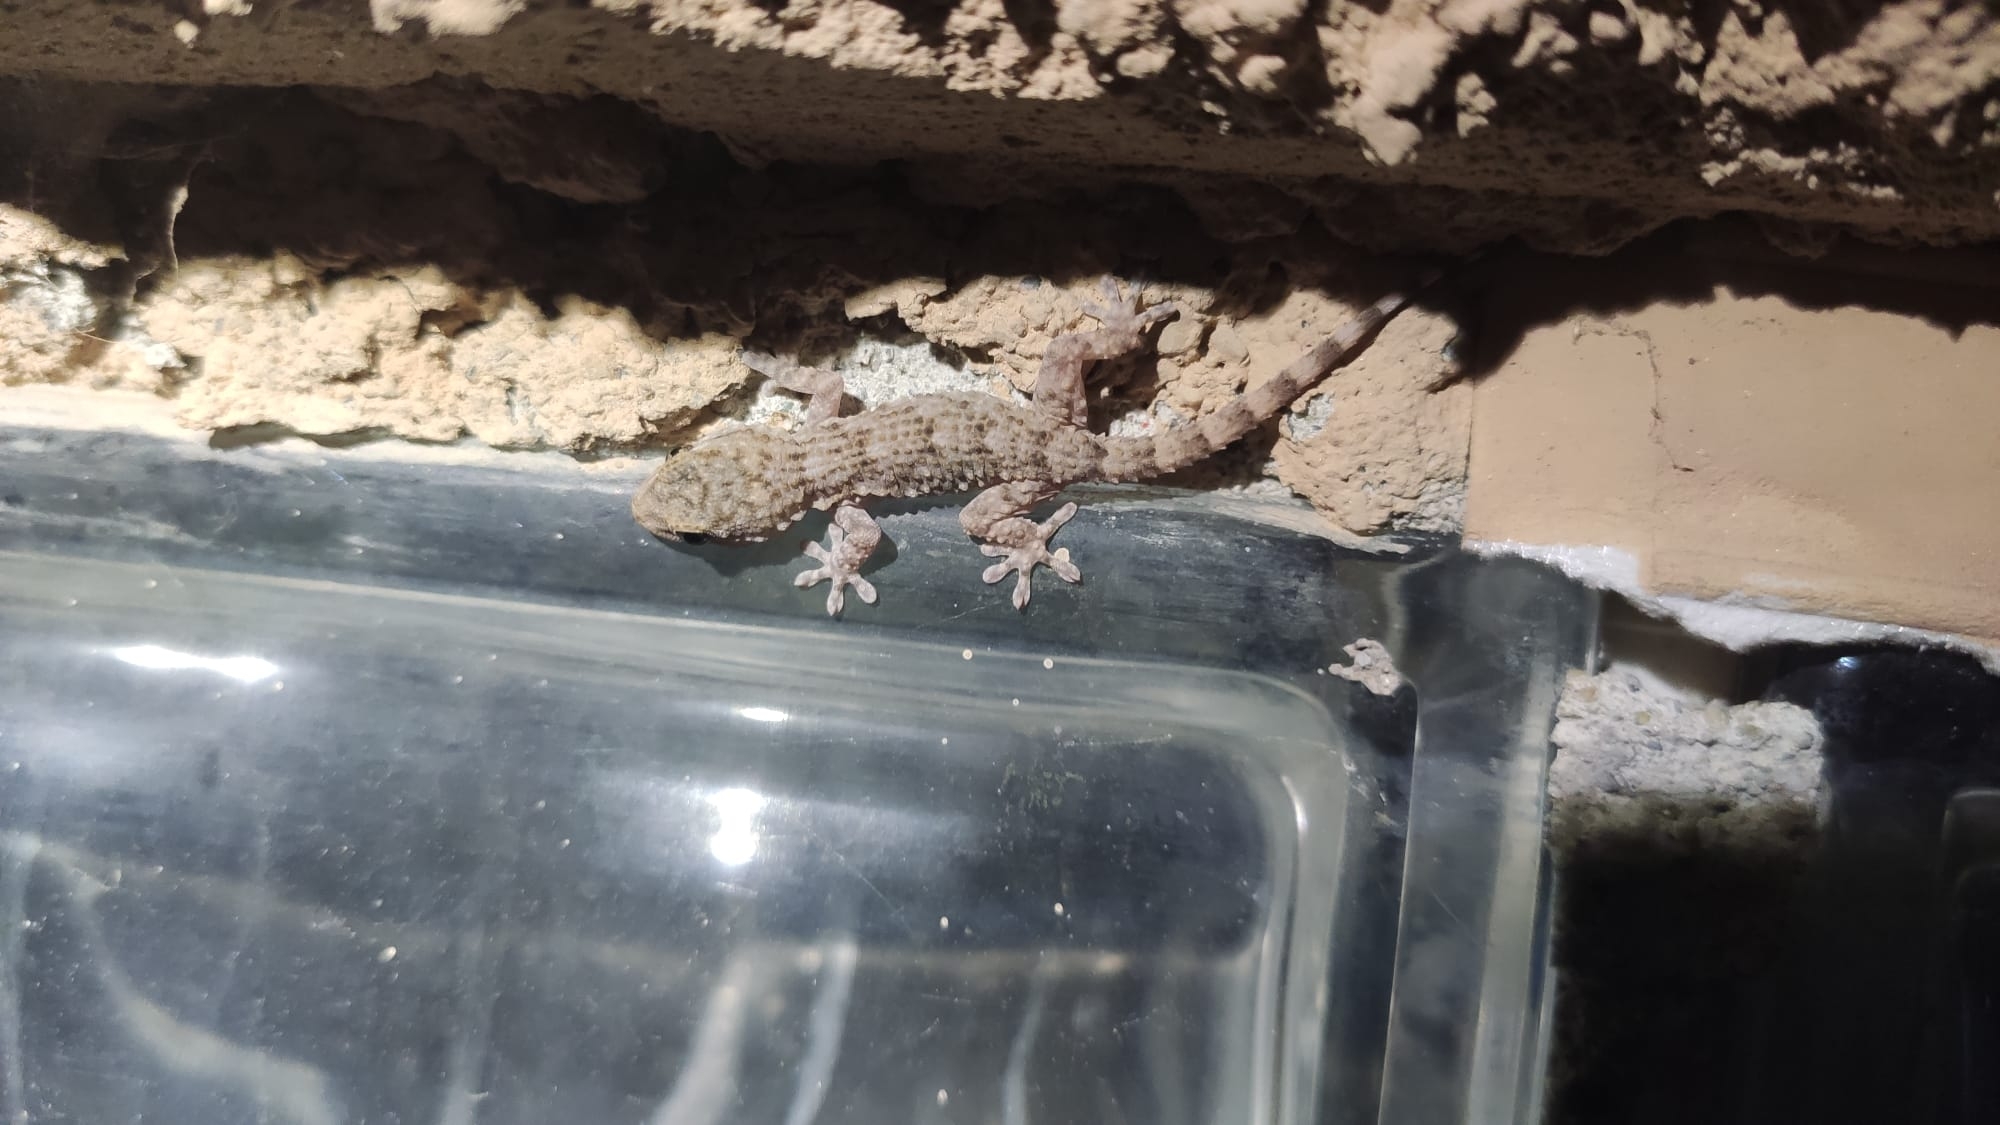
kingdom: Animalia
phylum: Chordata
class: Squamata
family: Phyllodactylidae
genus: Tarentola
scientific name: Tarentola mauritanica
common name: Moorish gecko
